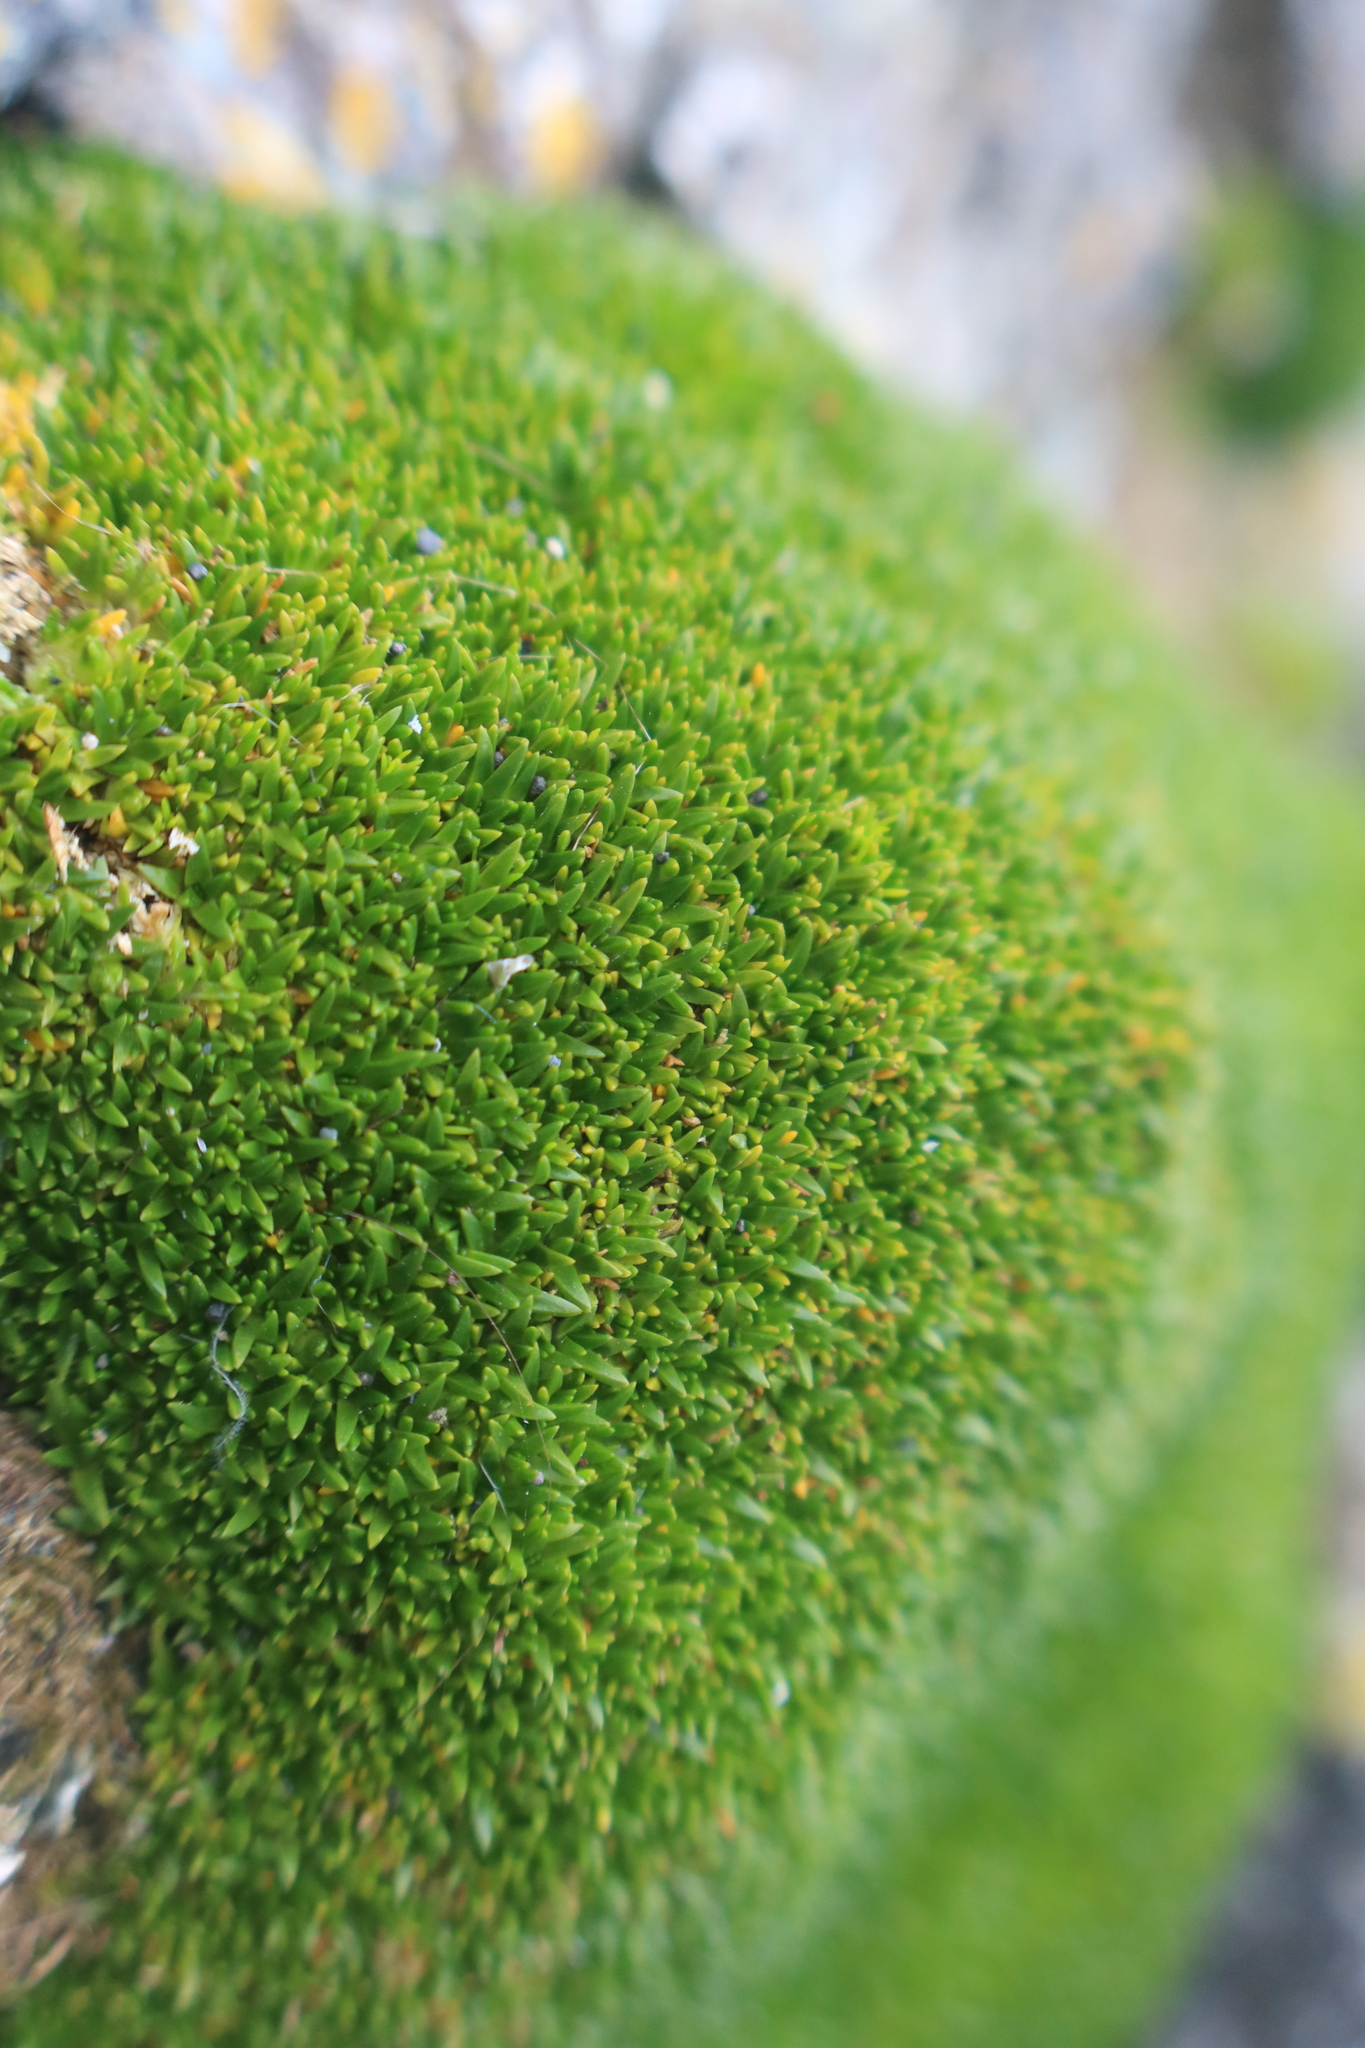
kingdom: Plantae
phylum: Tracheophyta
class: Magnoliopsida
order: Caryophyllales
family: Caryophyllaceae
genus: Colobanthus
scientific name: Colobanthus muscoides
